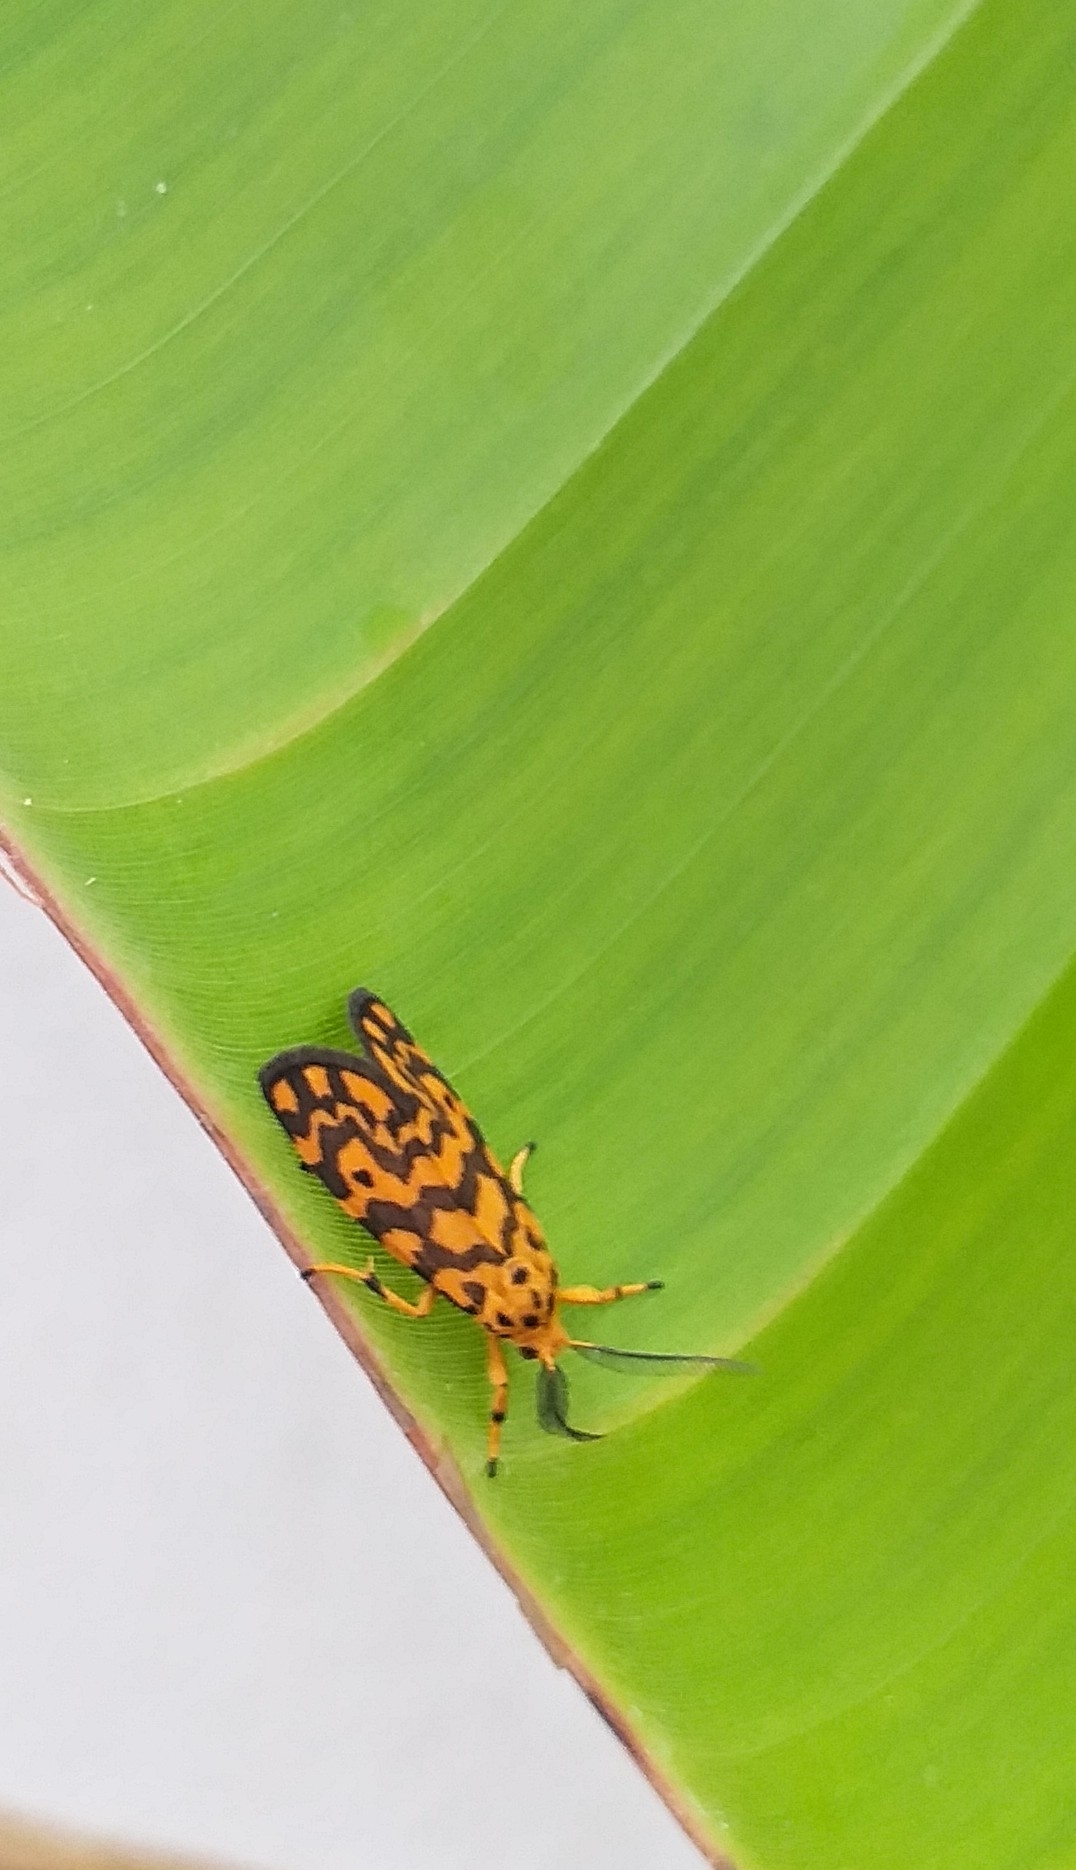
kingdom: Animalia
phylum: Arthropoda
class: Insecta
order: Lepidoptera
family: Erebidae
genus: Nepita
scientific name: Nepita conferta
